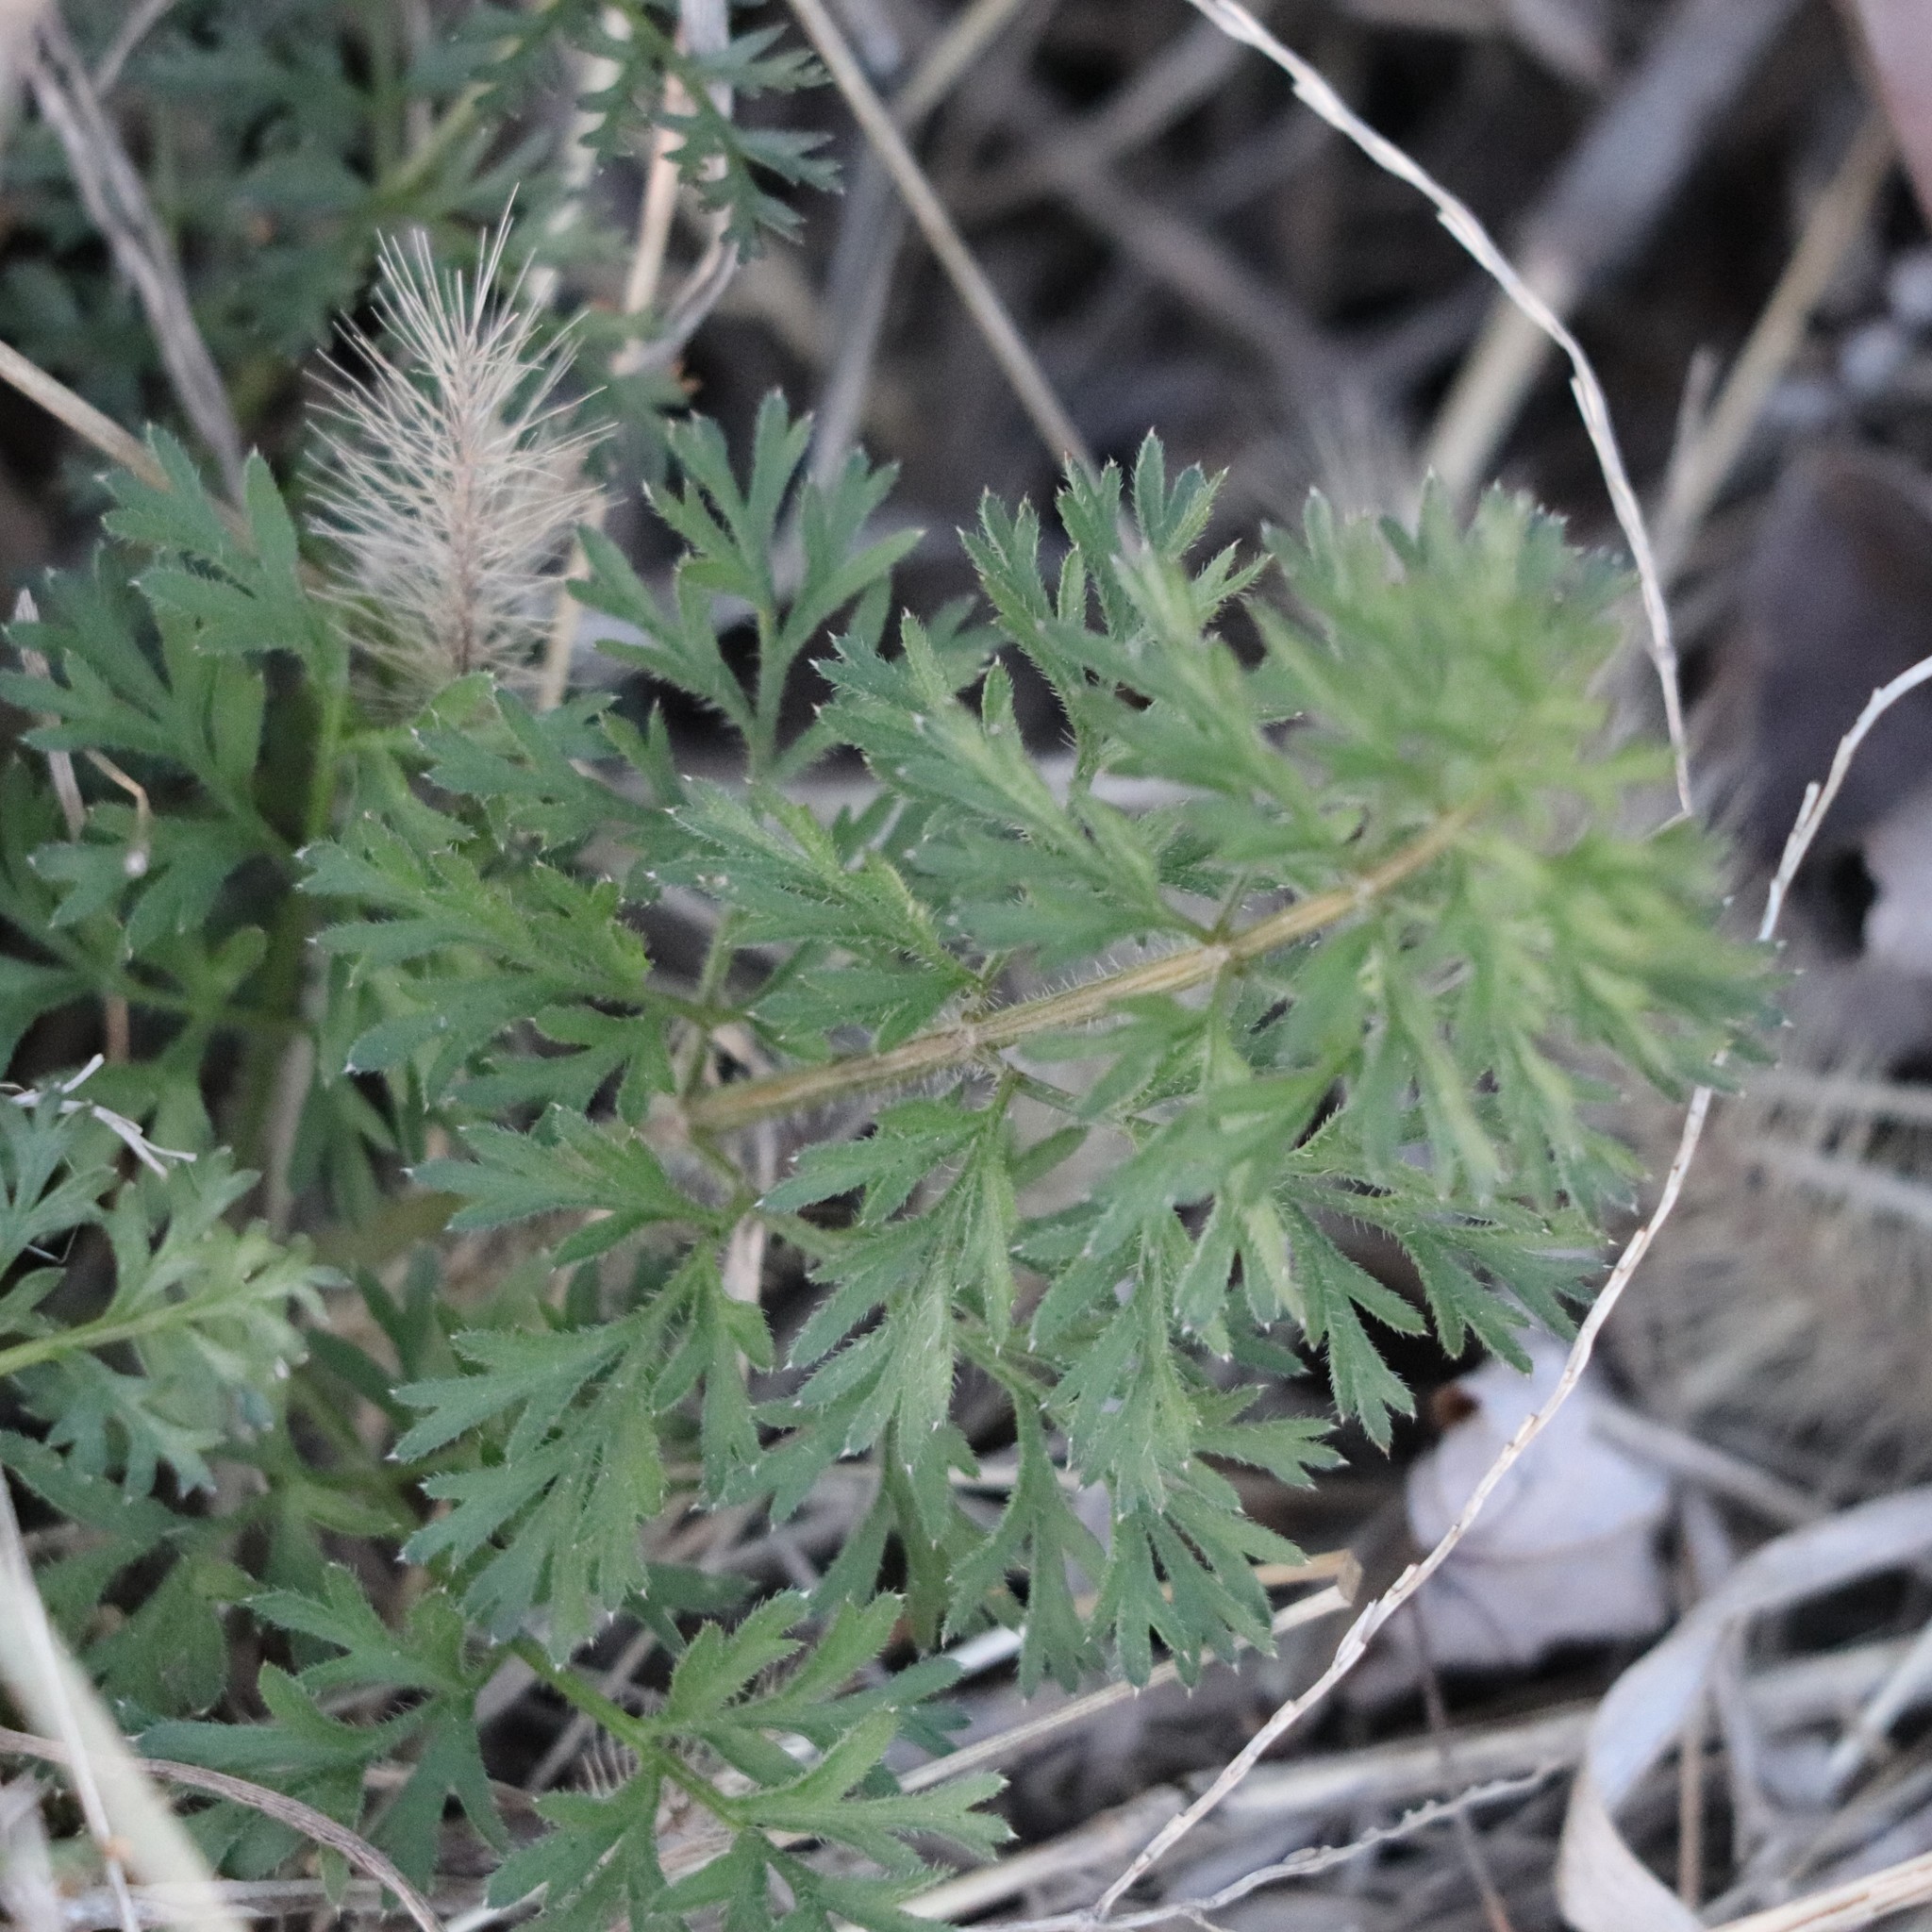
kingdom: Plantae
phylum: Tracheophyta
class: Magnoliopsida
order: Apiales
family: Apiaceae
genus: Daucus
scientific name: Daucus carota
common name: Wild carrot
